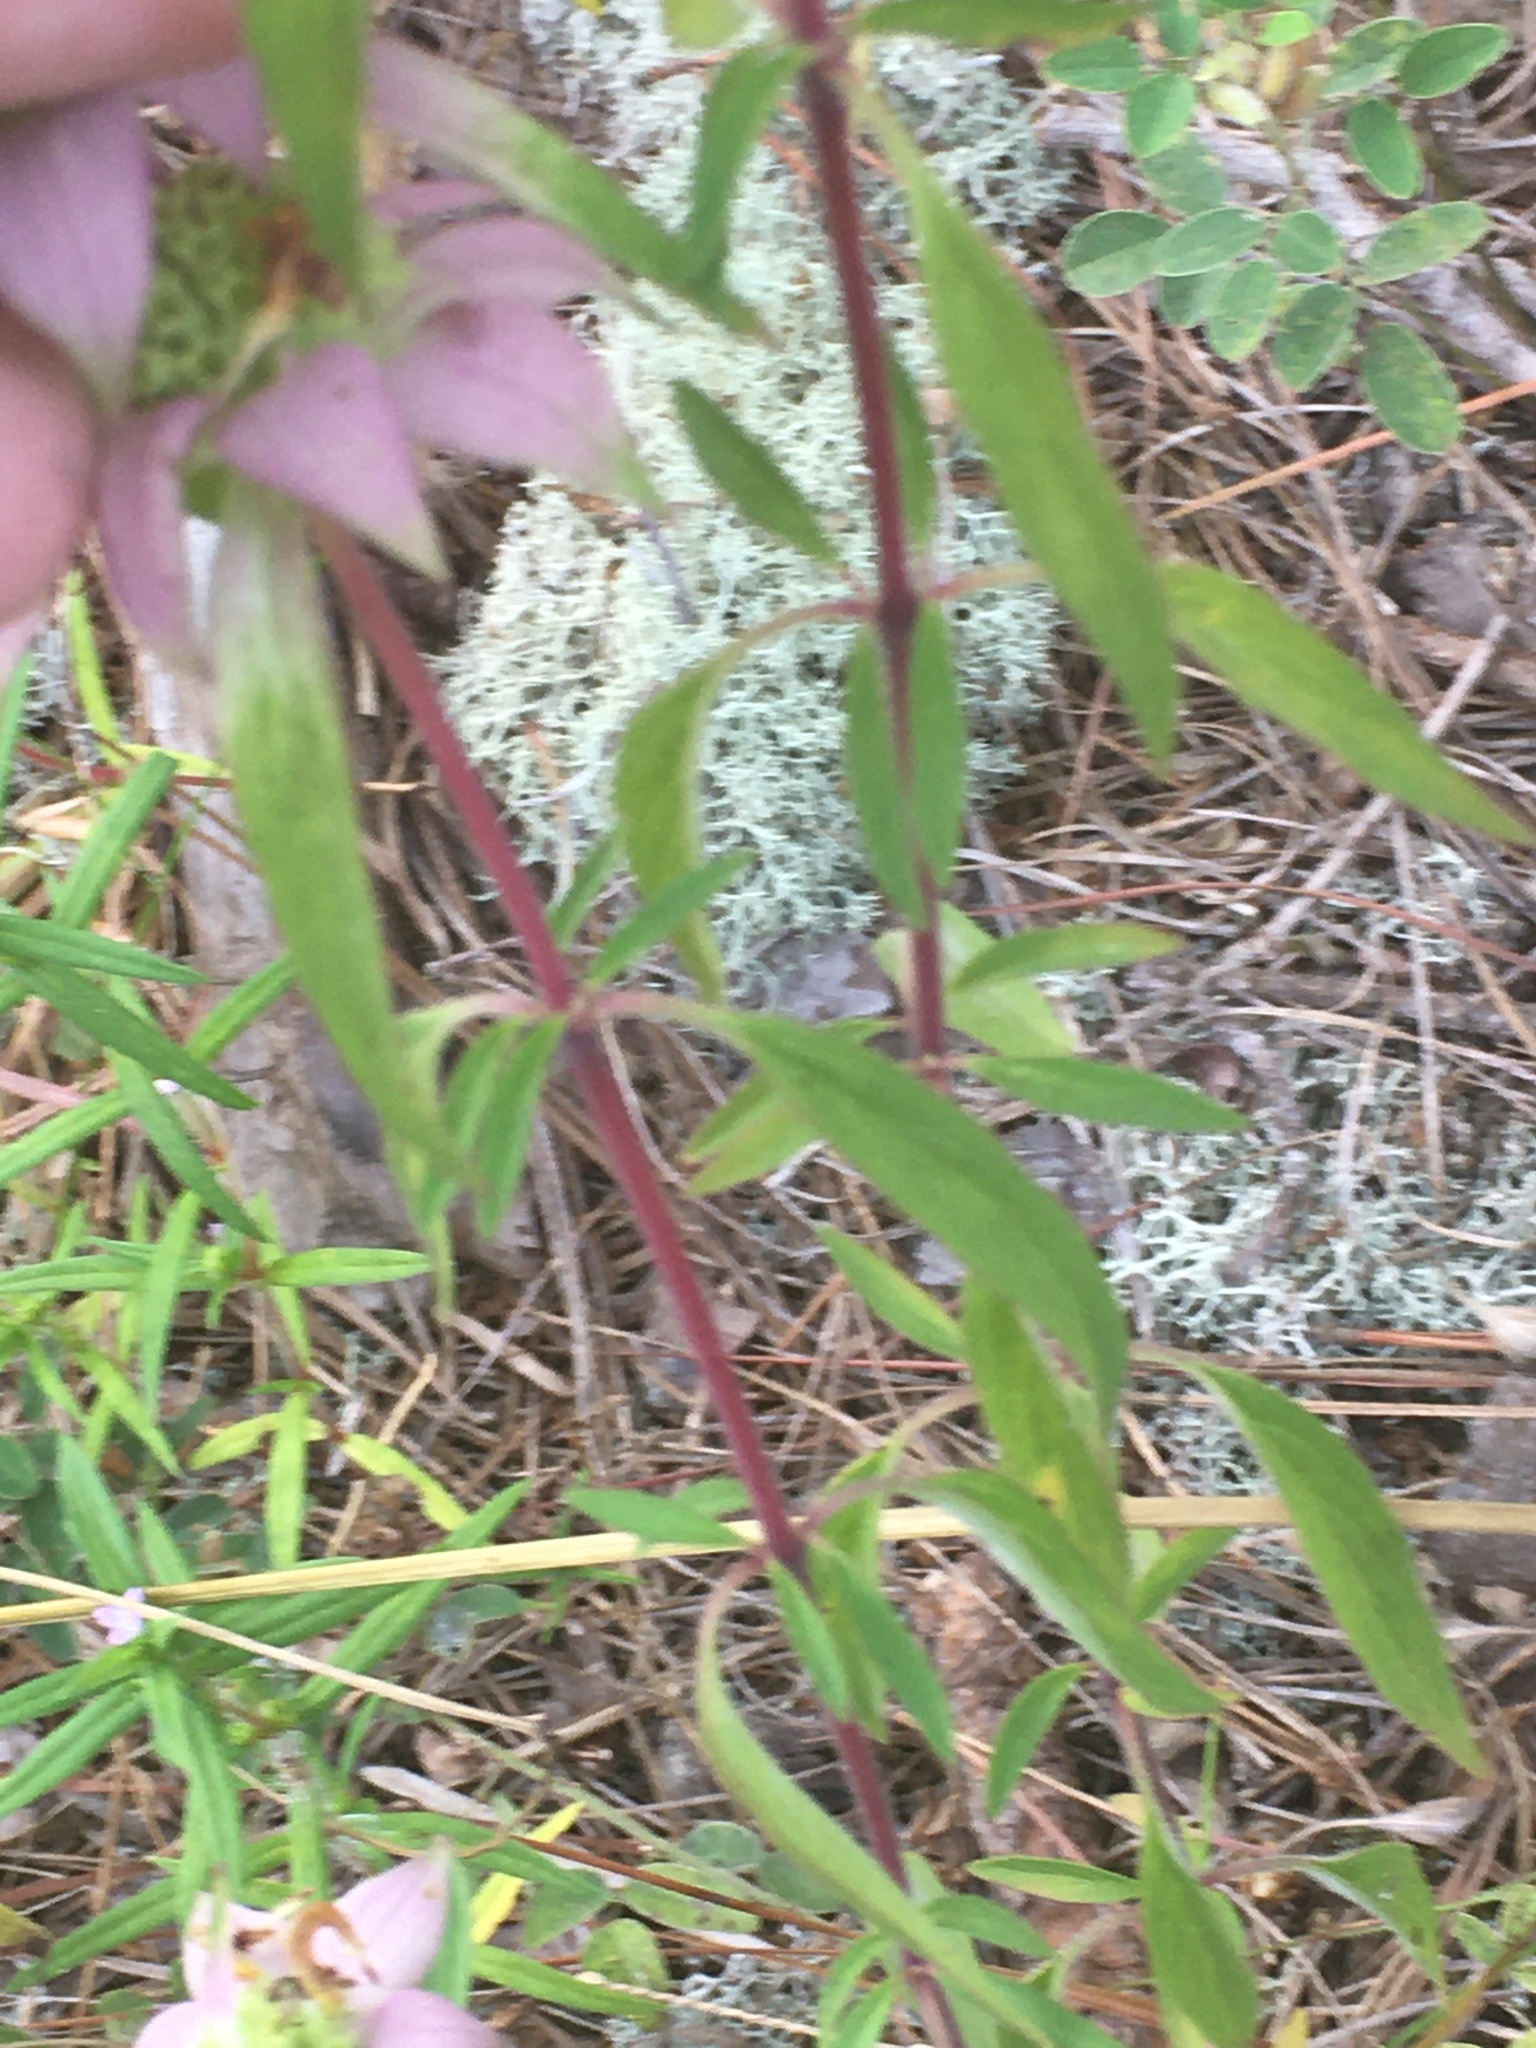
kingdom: Plantae
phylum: Tracheophyta
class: Magnoliopsida
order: Lamiales
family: Lamiaceae
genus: Monarda
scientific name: Monarda punctata
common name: Dotted monarda
